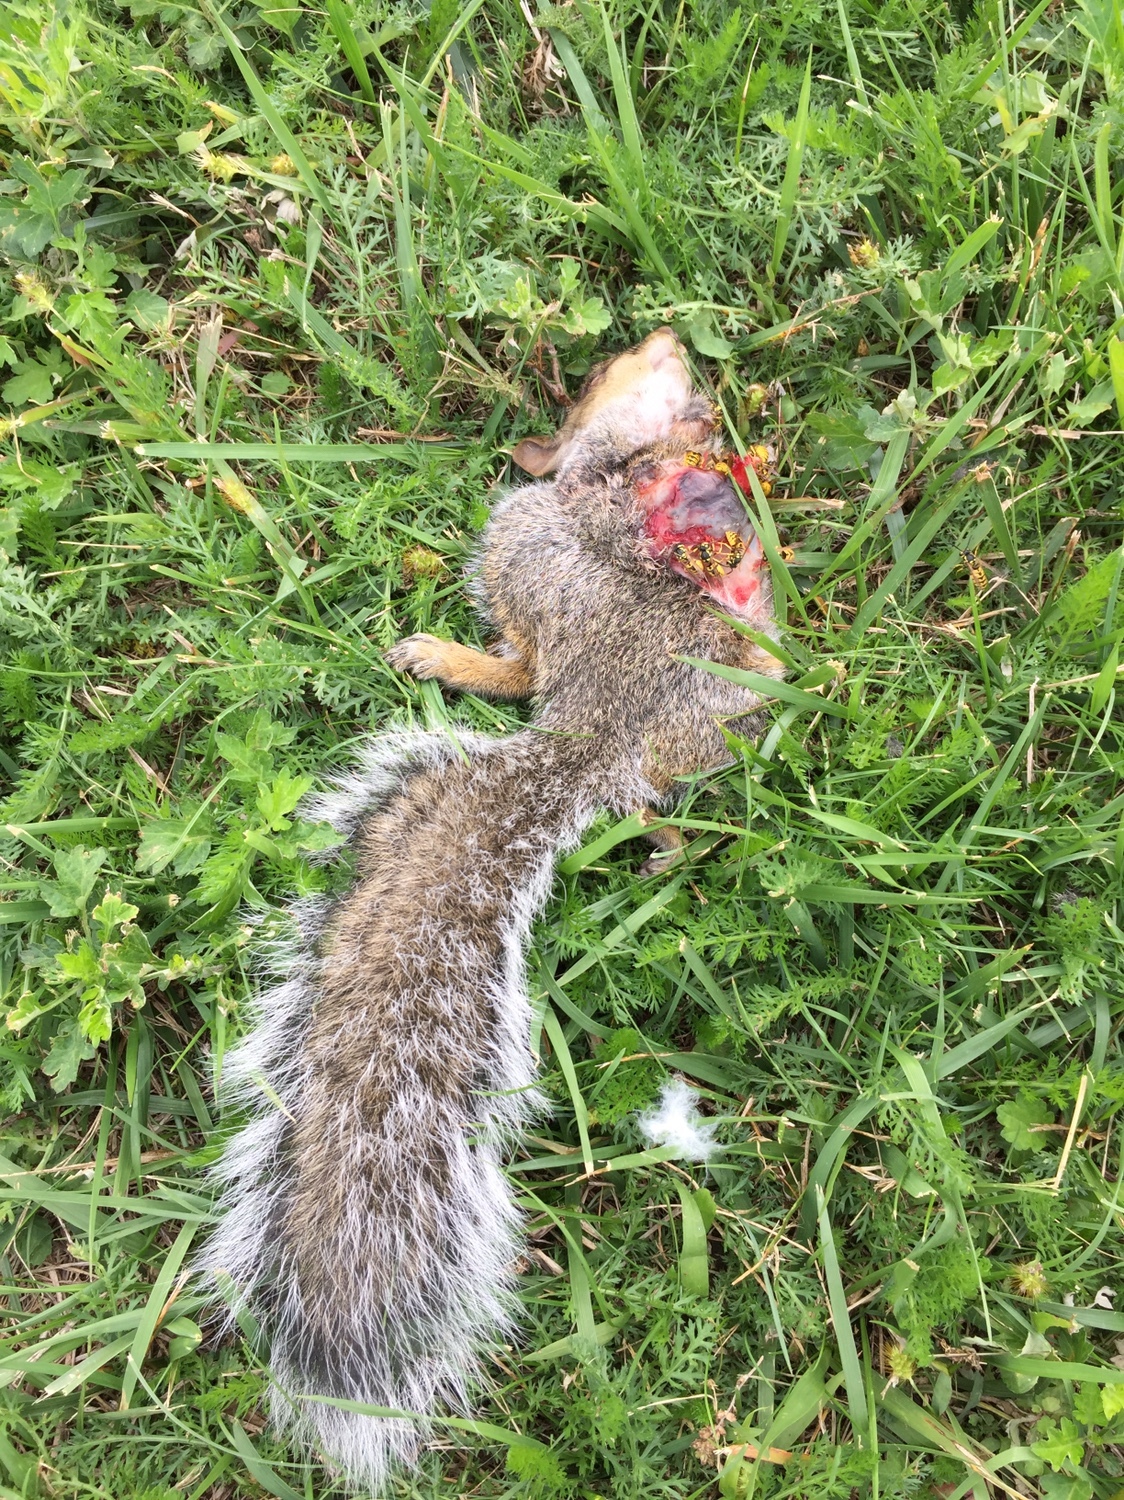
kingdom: Animalia
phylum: Arthropoda
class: Insecta
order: Hymenoptera
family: Vespidae
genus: Vespula
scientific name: Vespula germanica
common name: German wasp
